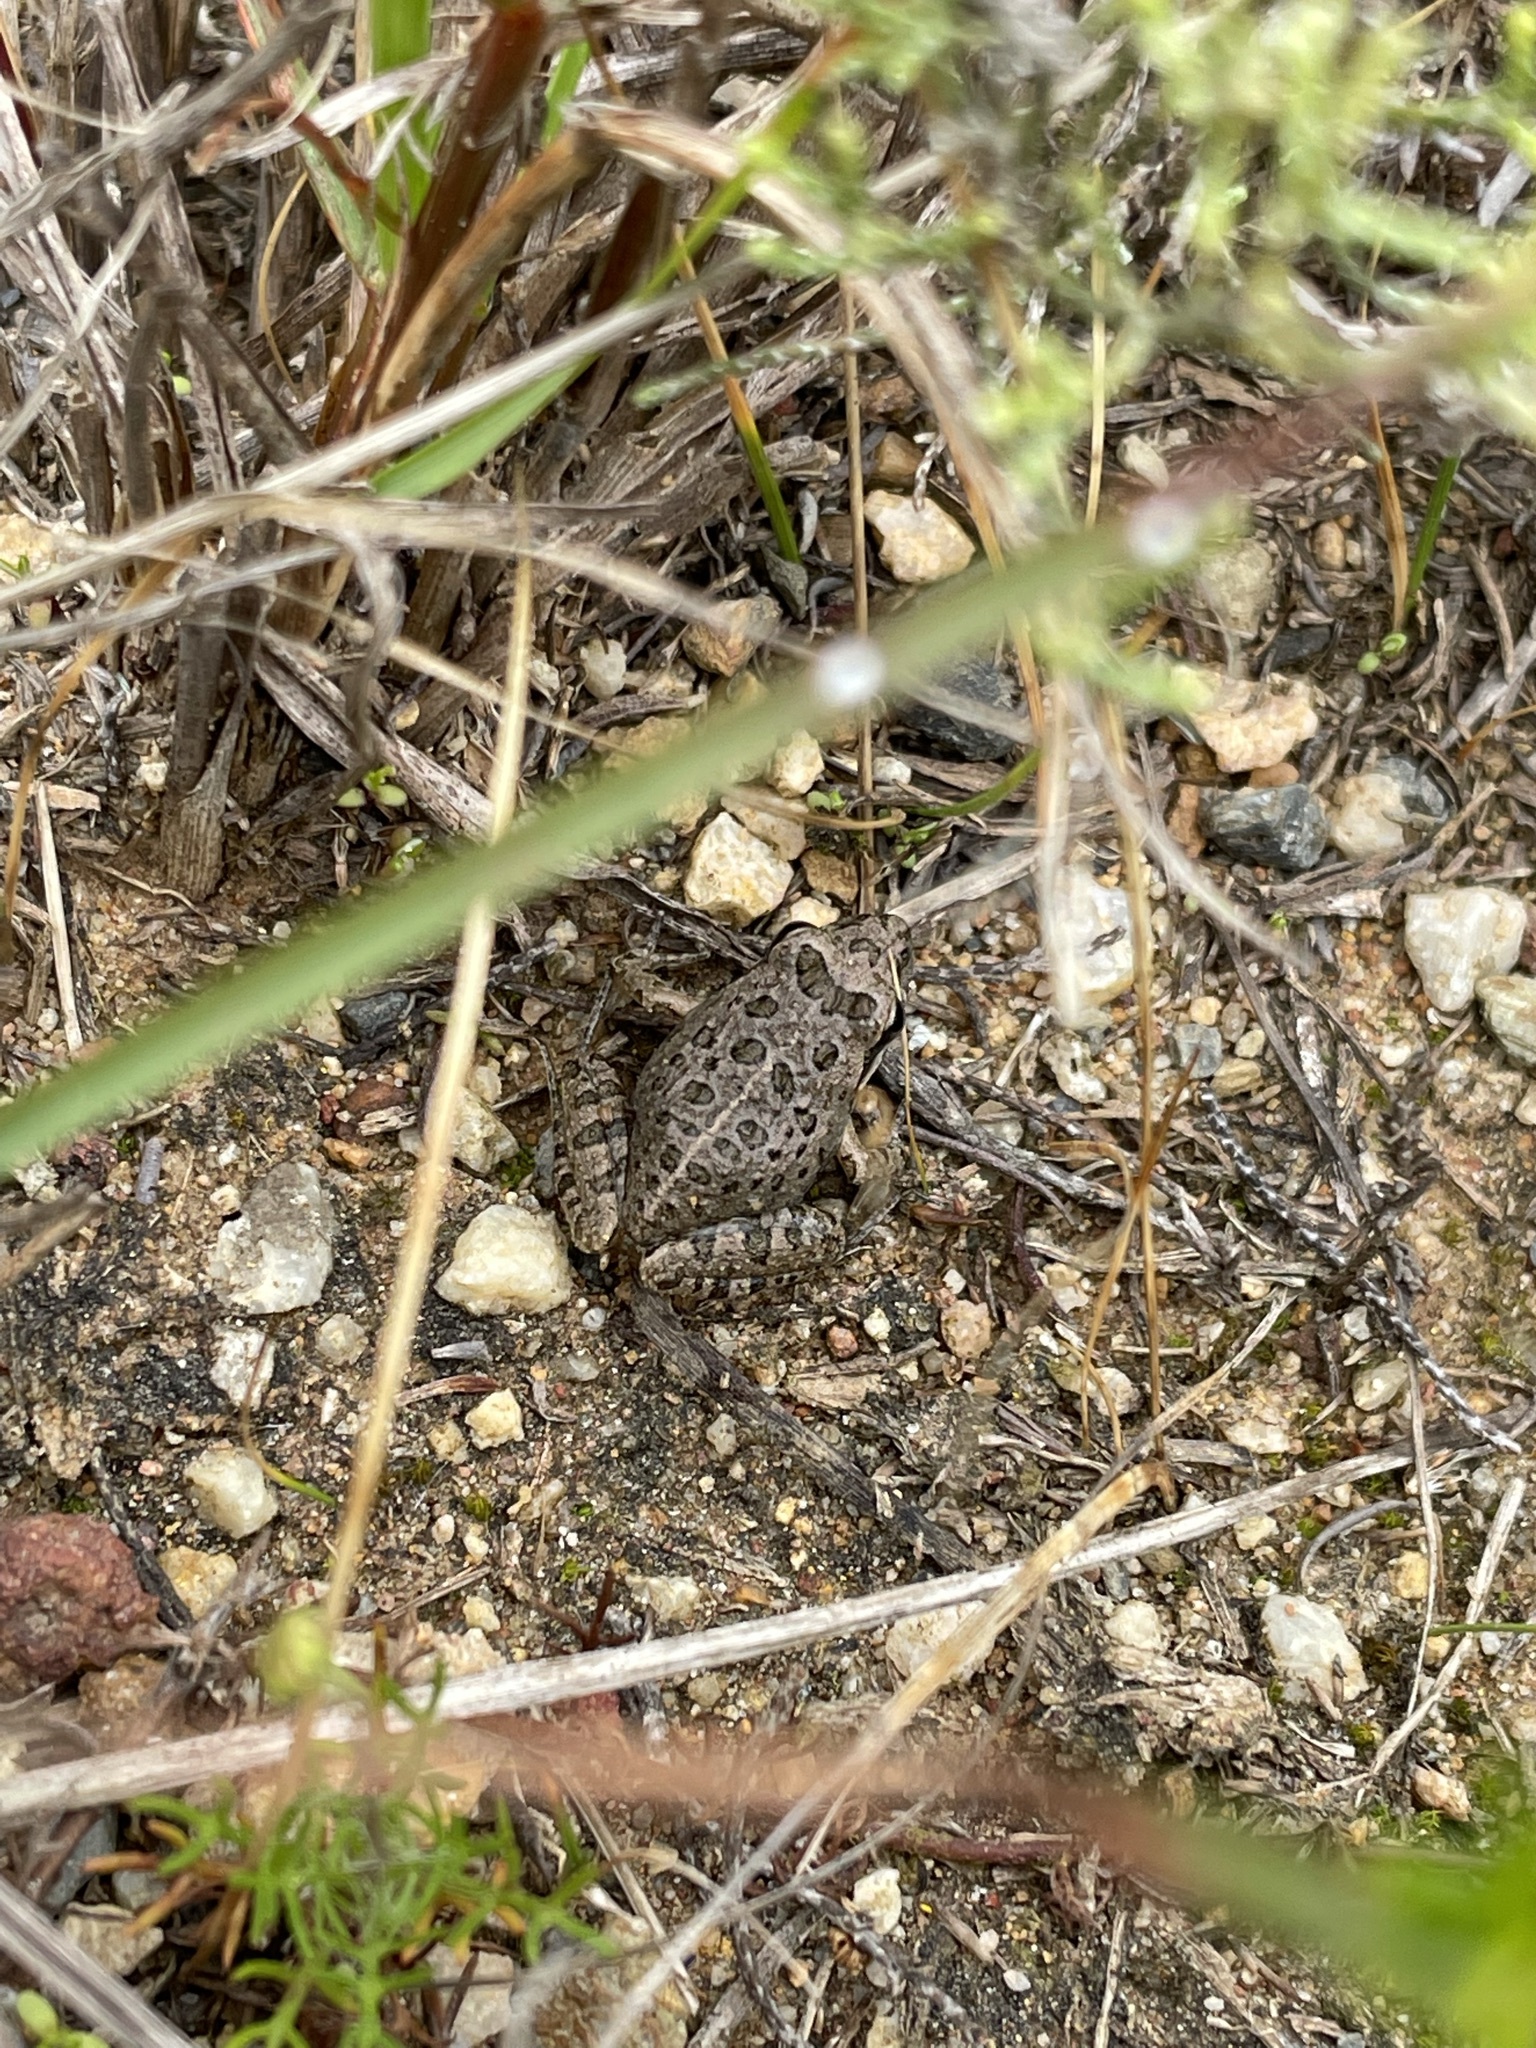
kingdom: Animalia
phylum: Chordata
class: Amphibia
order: Anura
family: Pyxicephalidae
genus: Strongylopus
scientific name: Strongylopus grayii
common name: Gray's stream frog
